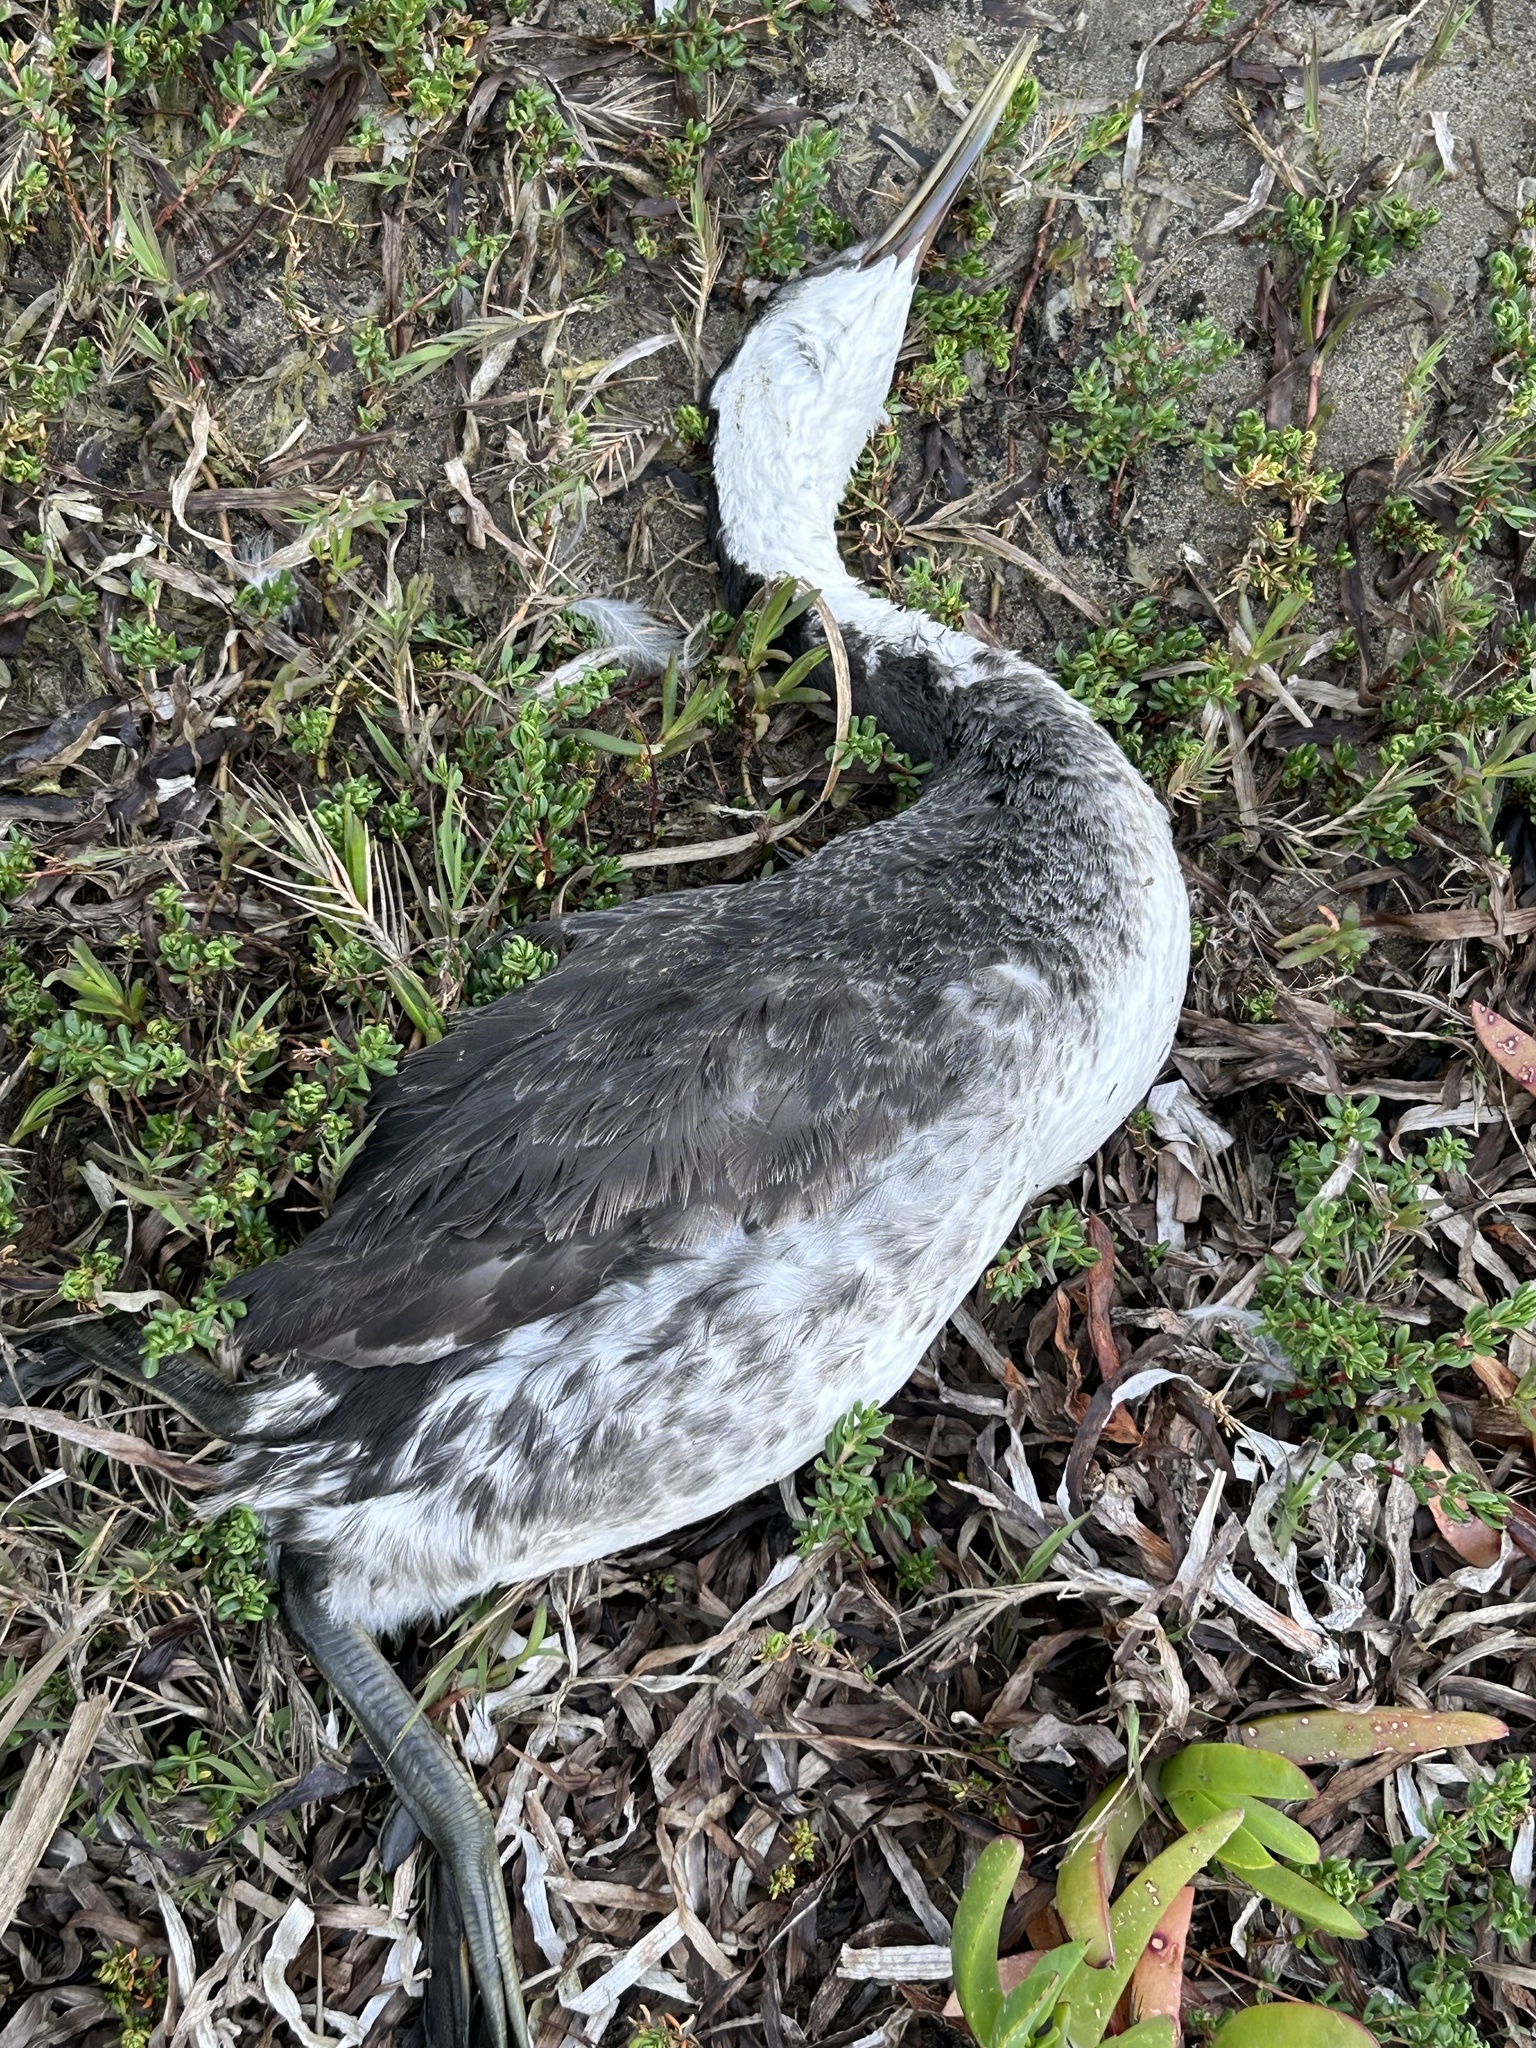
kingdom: Animalia
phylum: Chordata
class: Aves
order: Podicipediformes
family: Podicipedidae
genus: Aechmophorus
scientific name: Aechmophorus occidentalis
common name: Western grebe
